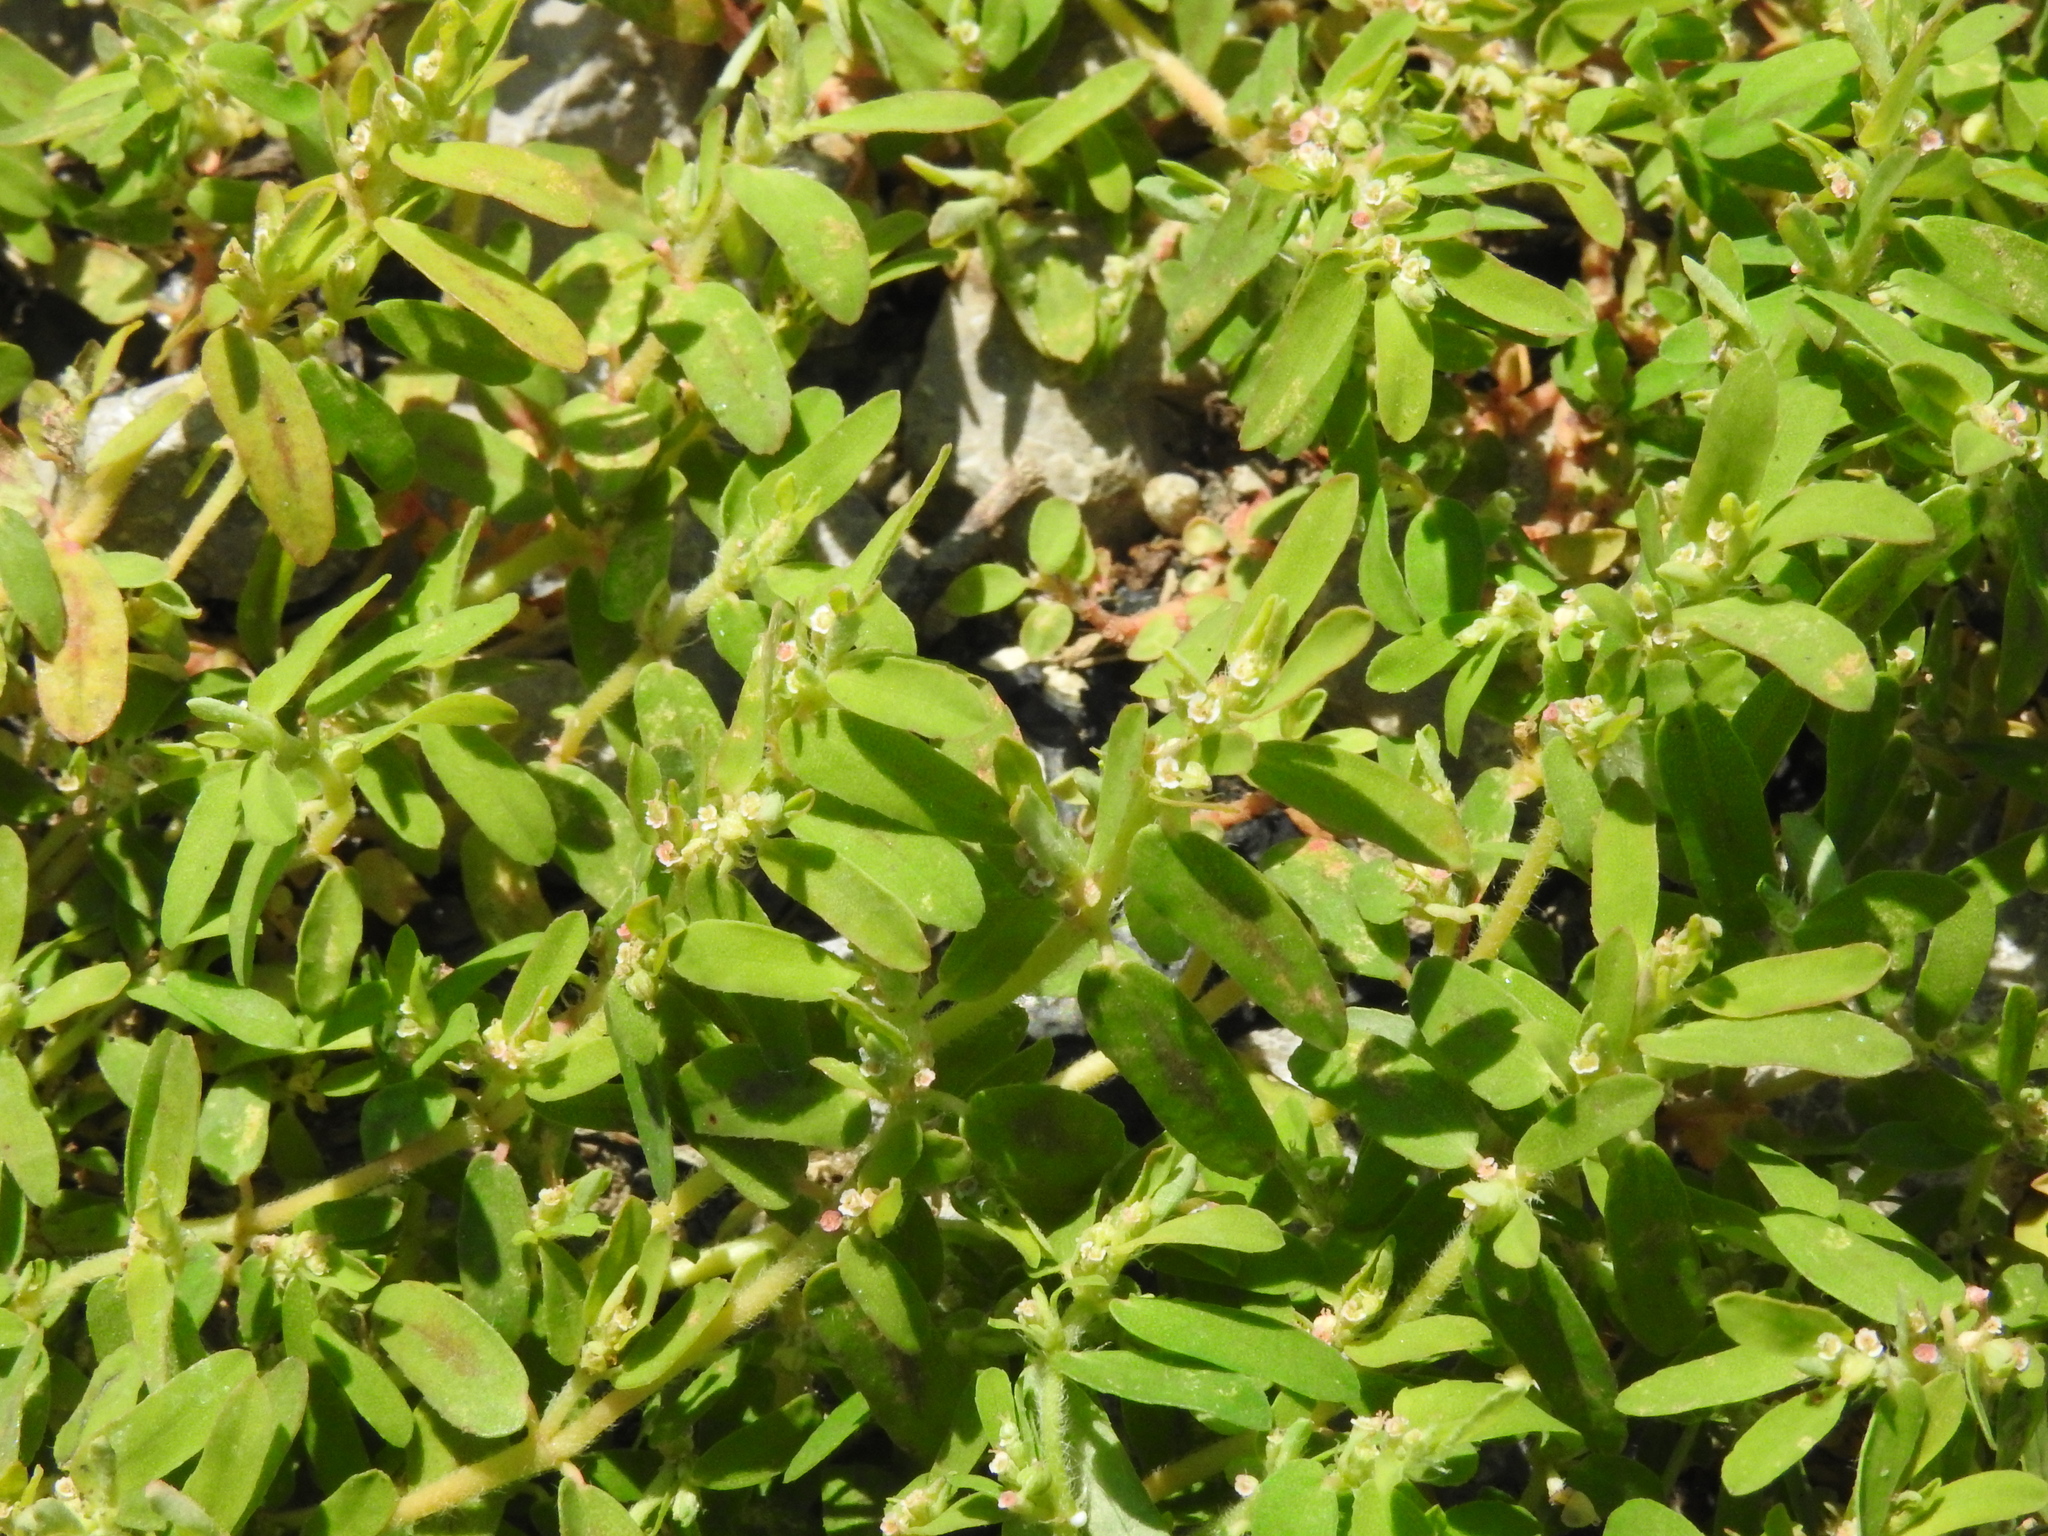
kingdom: Plantae
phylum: Tracheophyta
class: Magnoliopsida
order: Malpighiales
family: Euphorbiaceae
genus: Euphorbia
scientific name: Euphorbia maculata
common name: Spotted spurge
